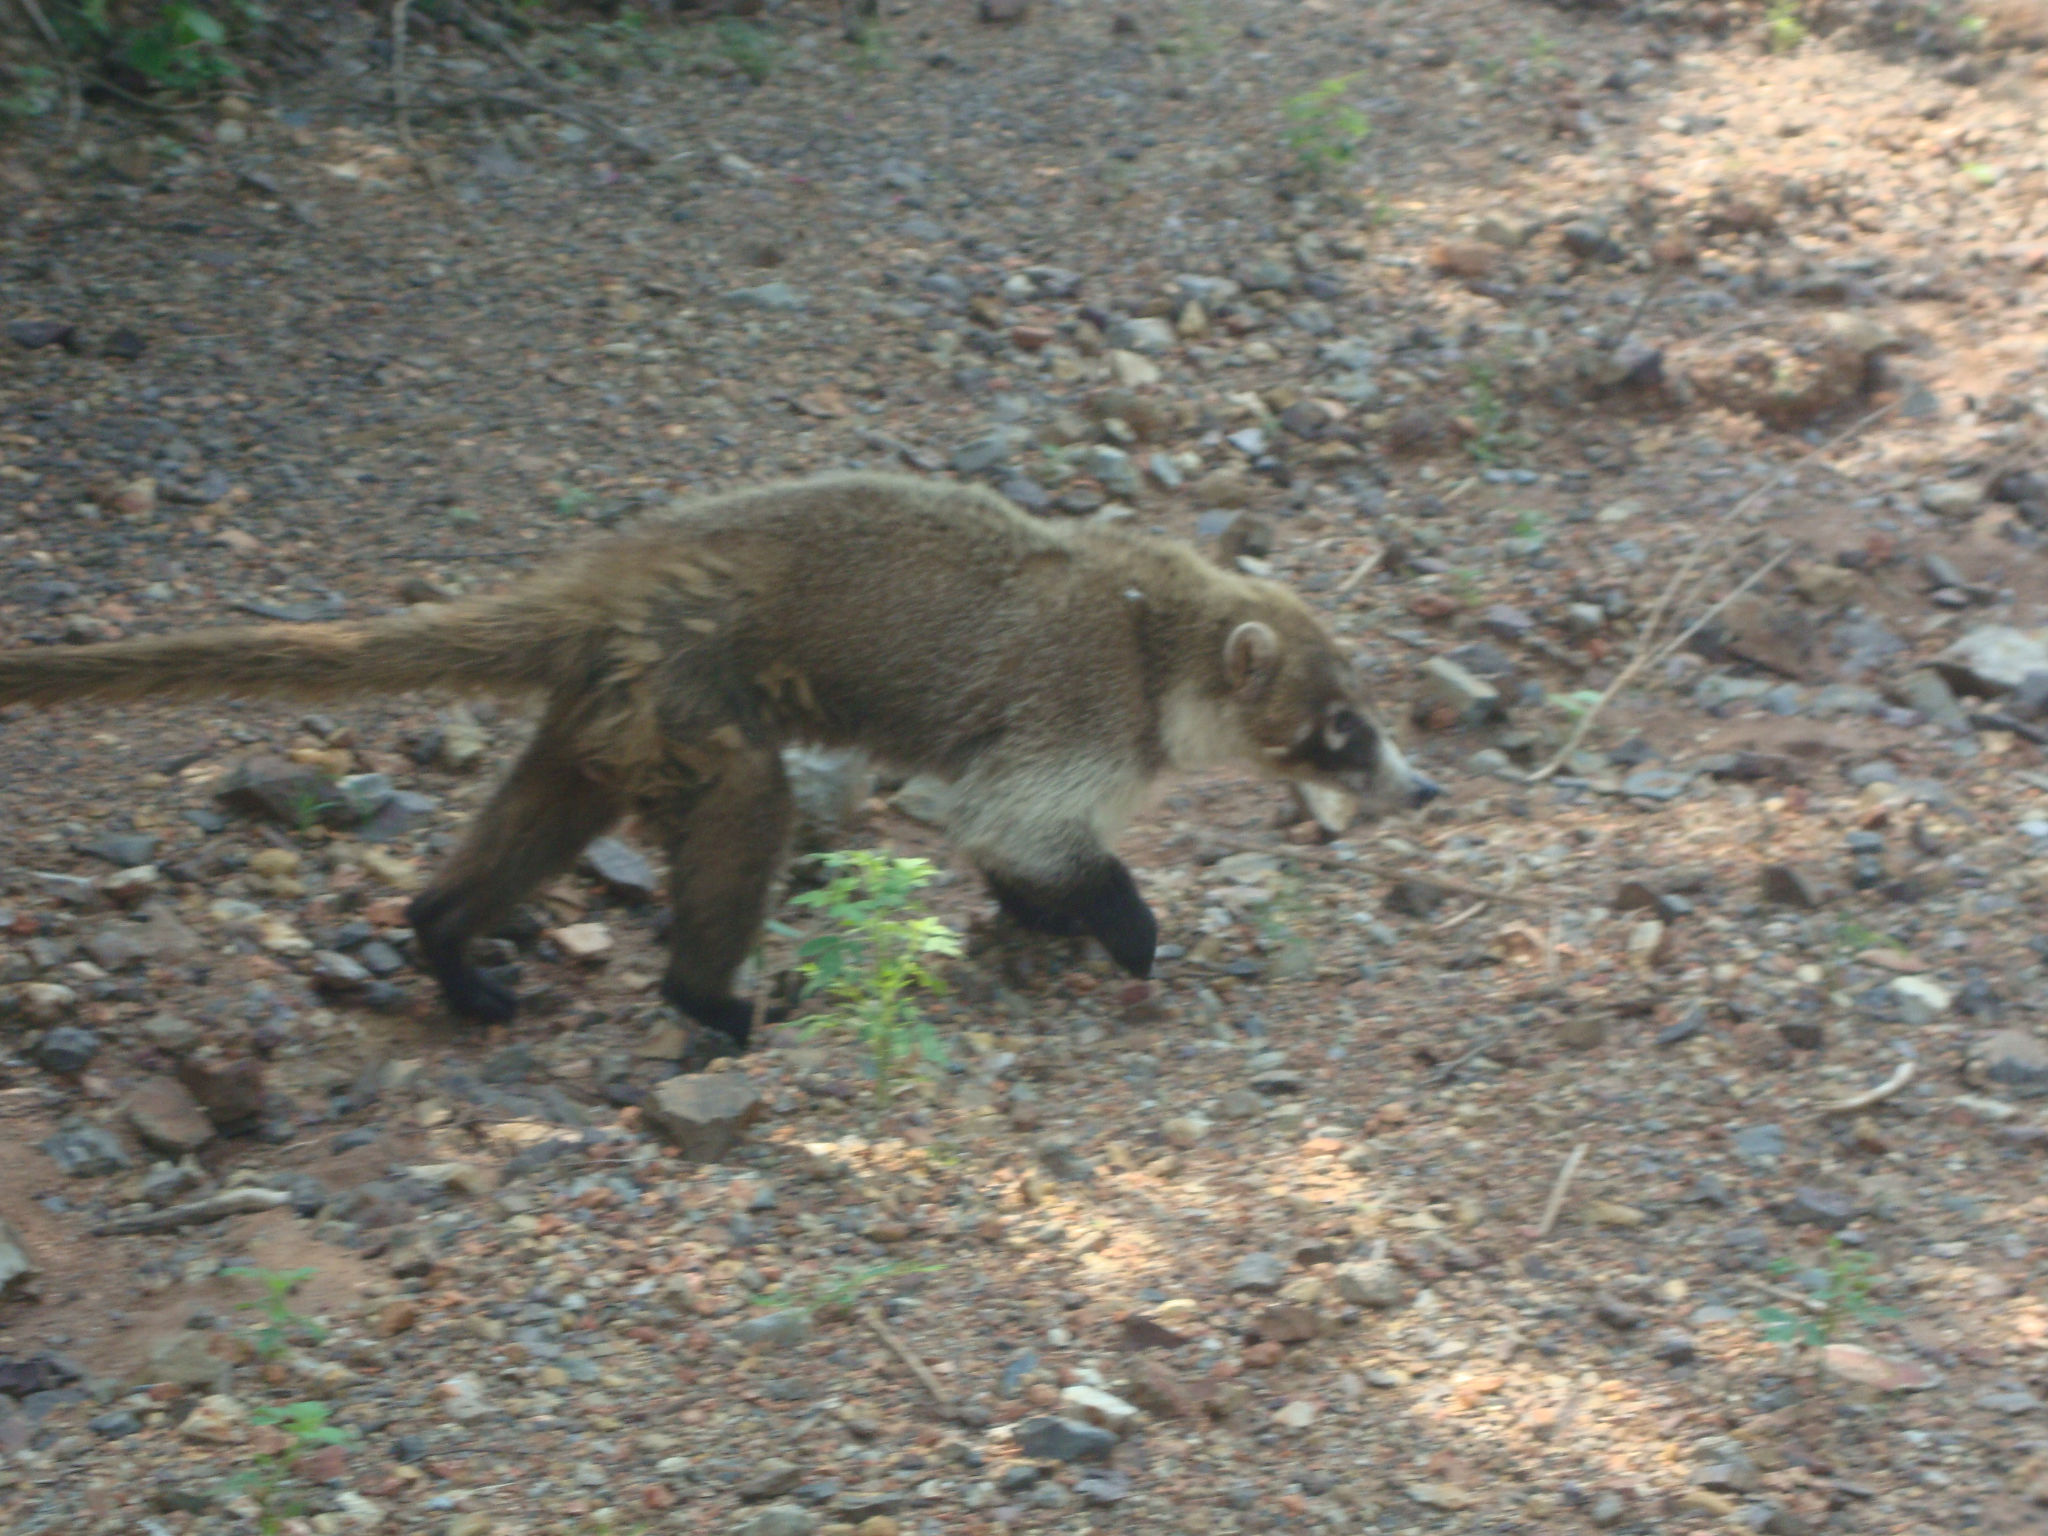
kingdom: Animalia
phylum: Chordata
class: Mammalia
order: Carnivora
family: Procyonidae
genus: Nasua
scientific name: Nasua narica
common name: White-nosed coati
